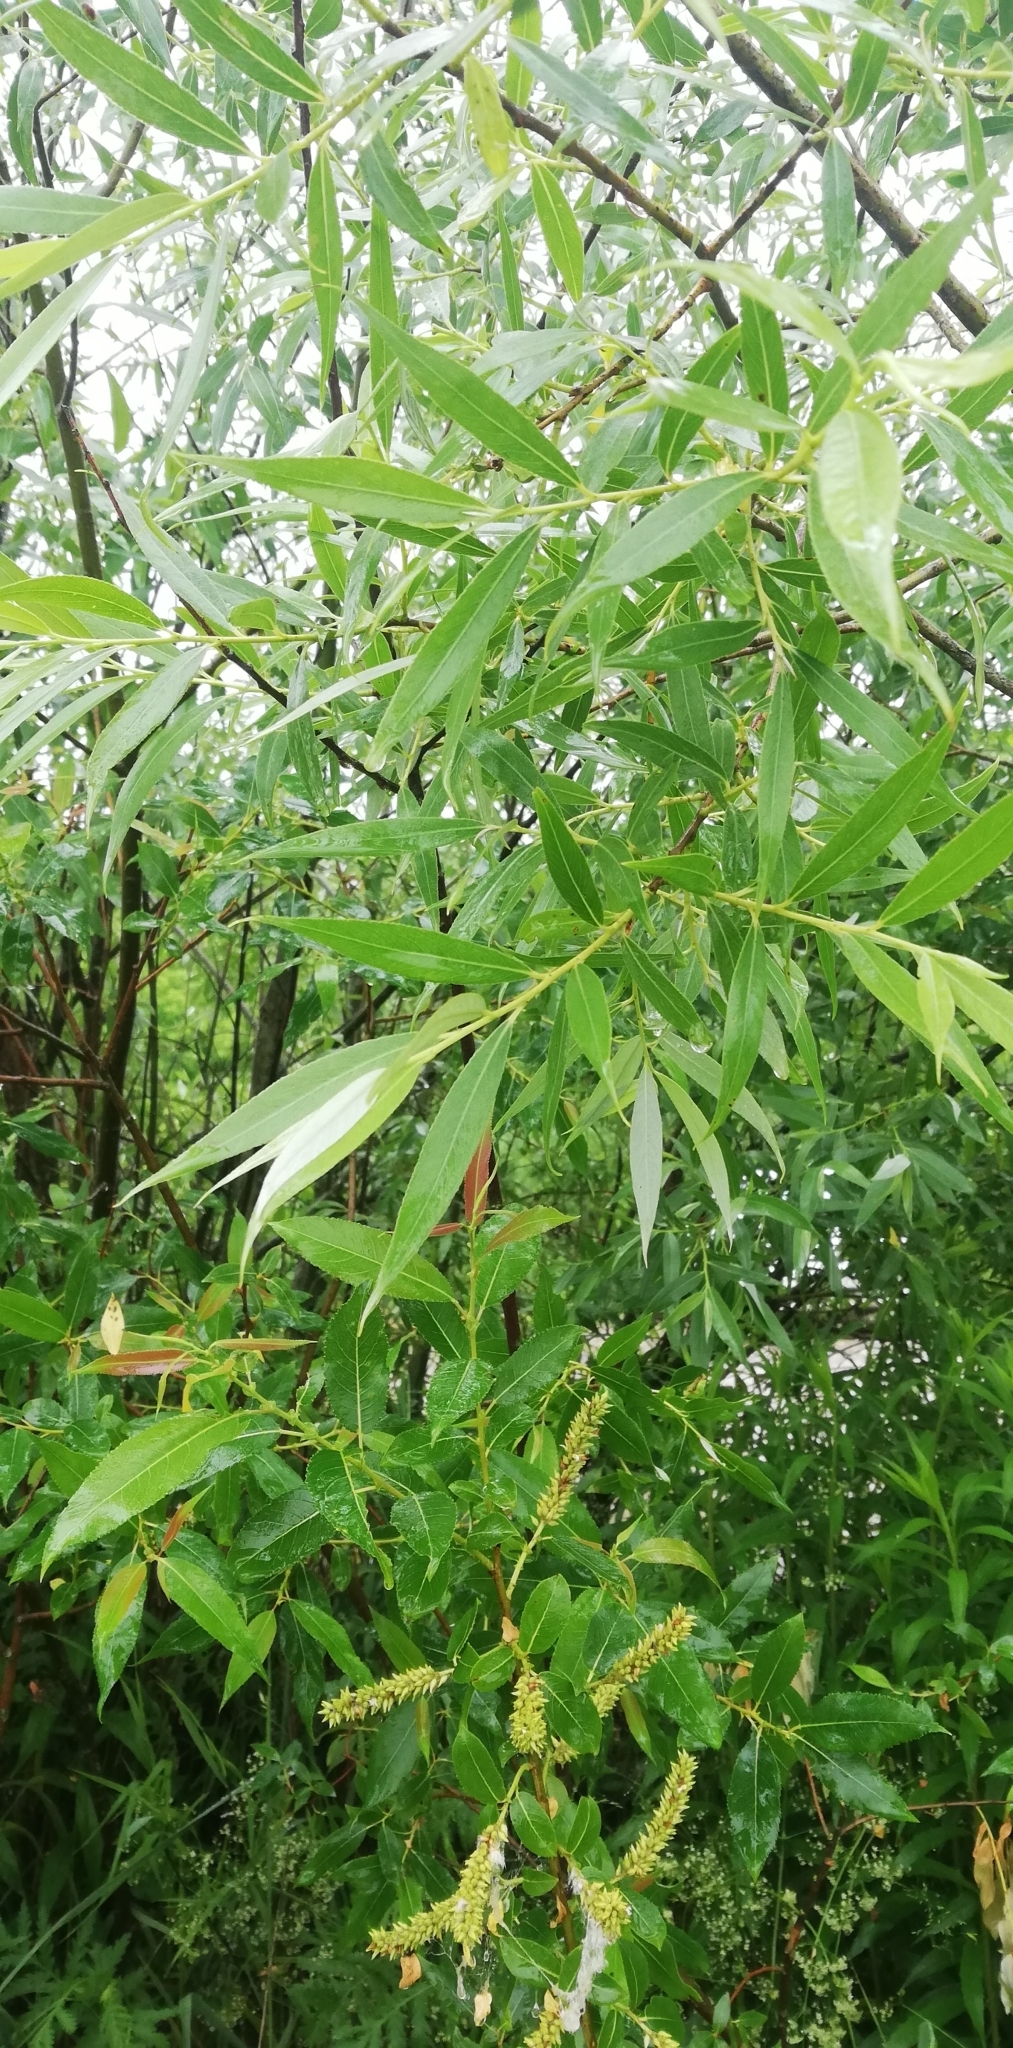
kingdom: Plantae
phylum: Tracheophyta
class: Magnoliopsida
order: Malpighiales
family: Salicaceae
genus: Salix
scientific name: Salix triandra
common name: Almond willow
